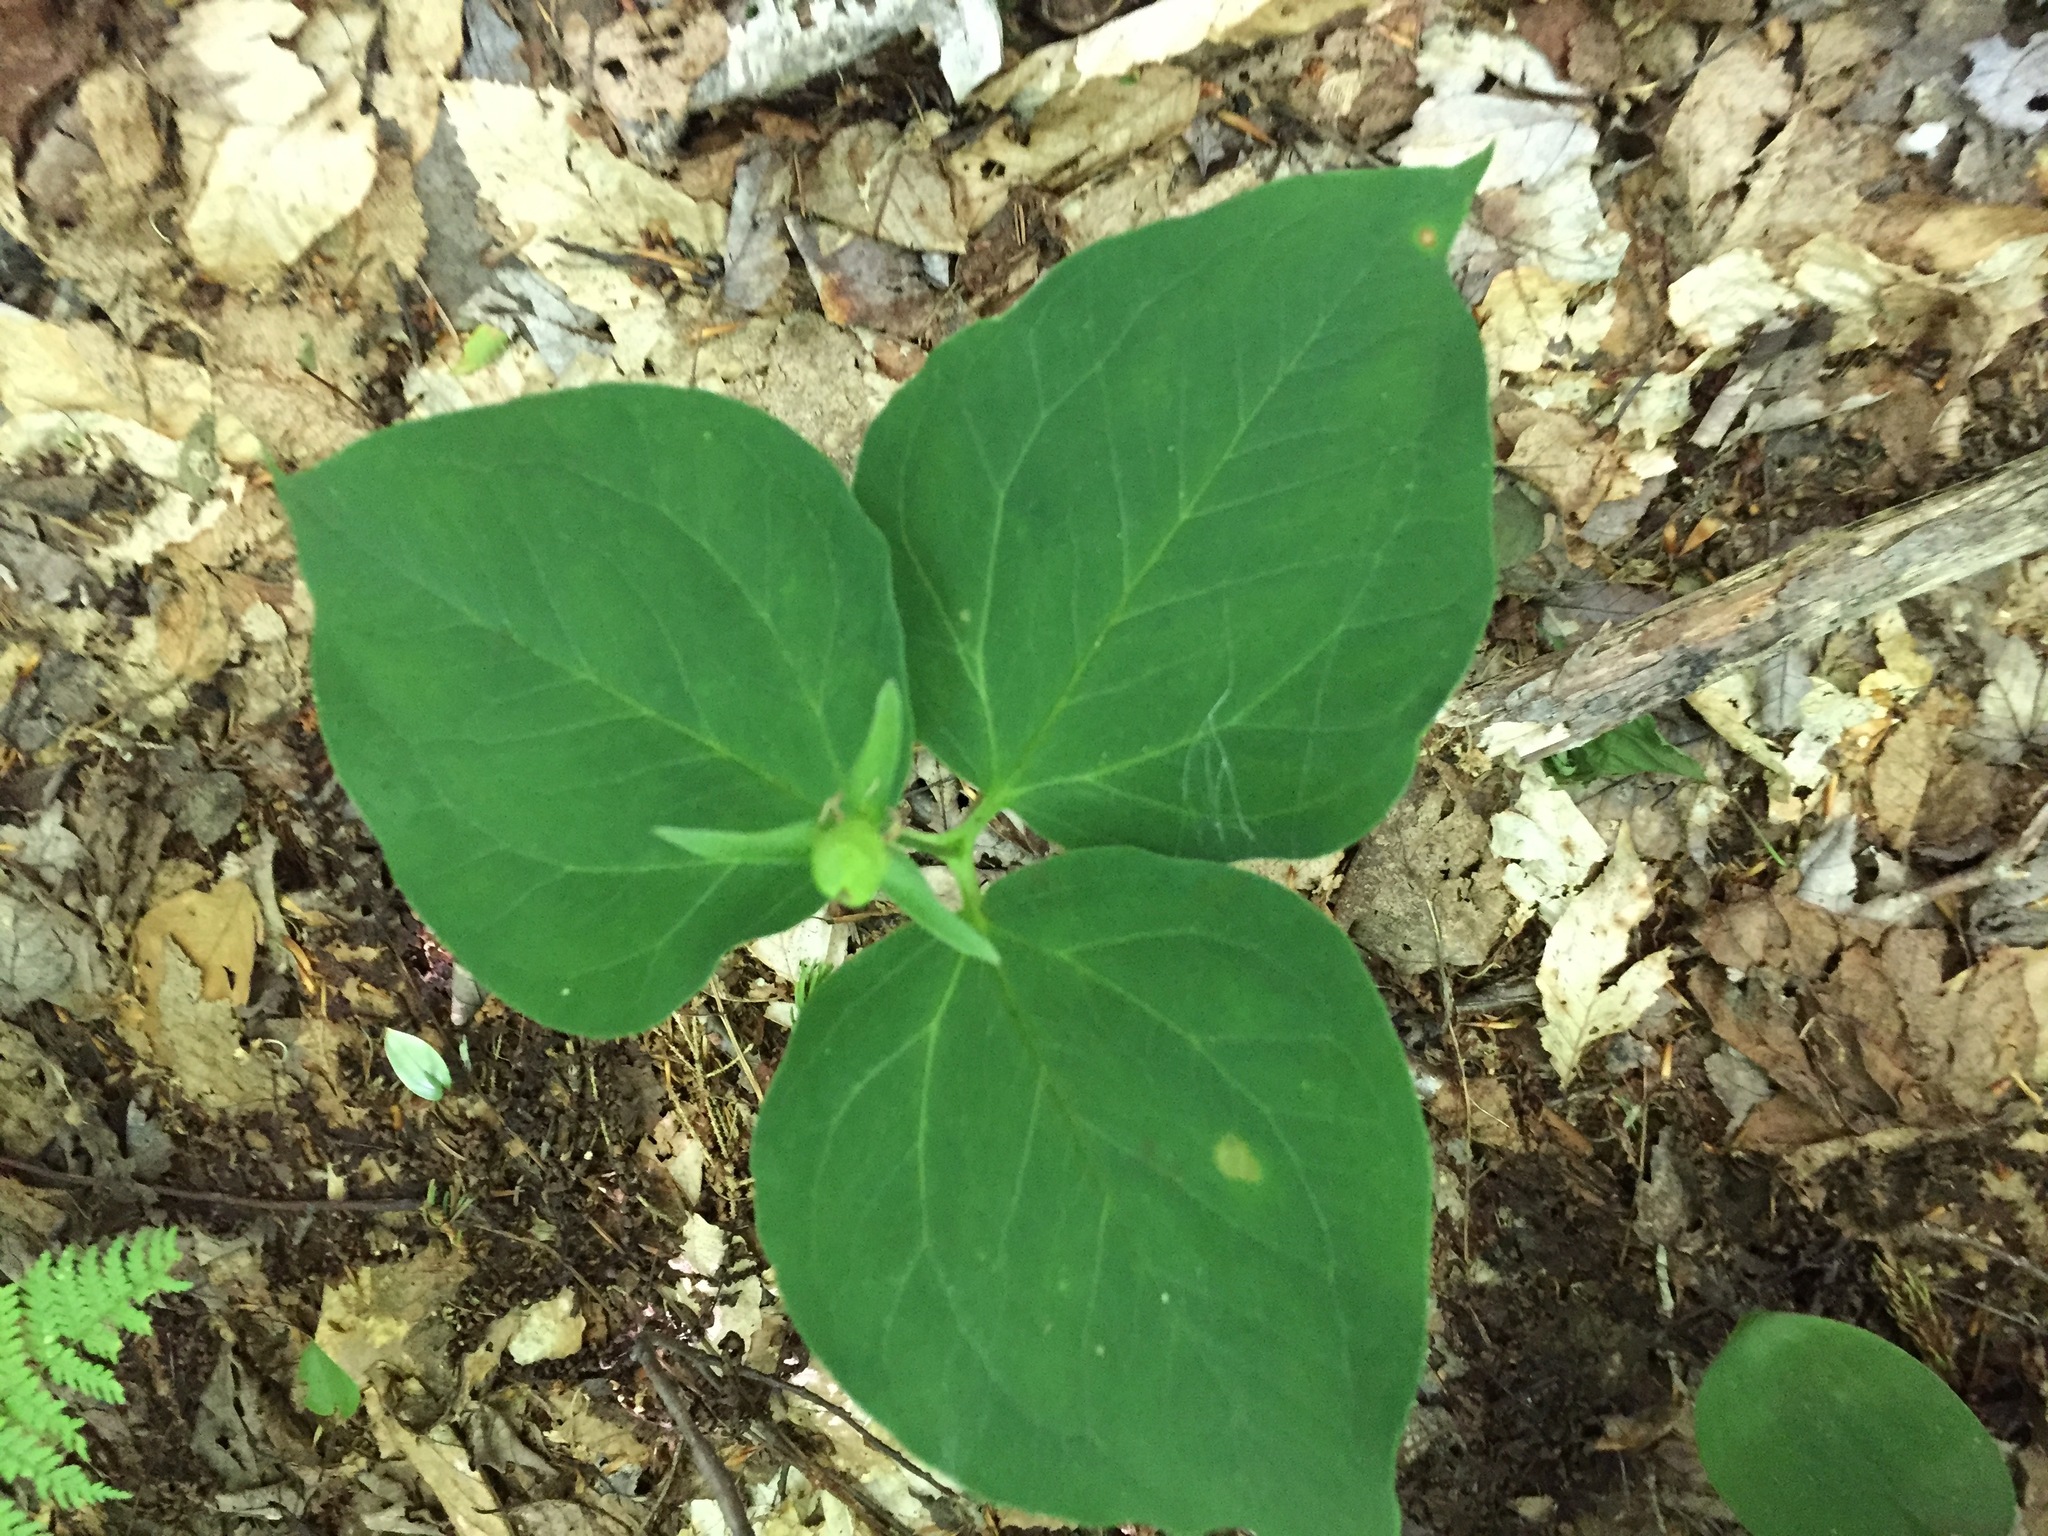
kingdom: Plantae
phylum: Tracheophyta
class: Liliopsida
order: Liliales
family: Melanthiaceae
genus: Trillium
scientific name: Trillium undulatum
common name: Paint trillium
